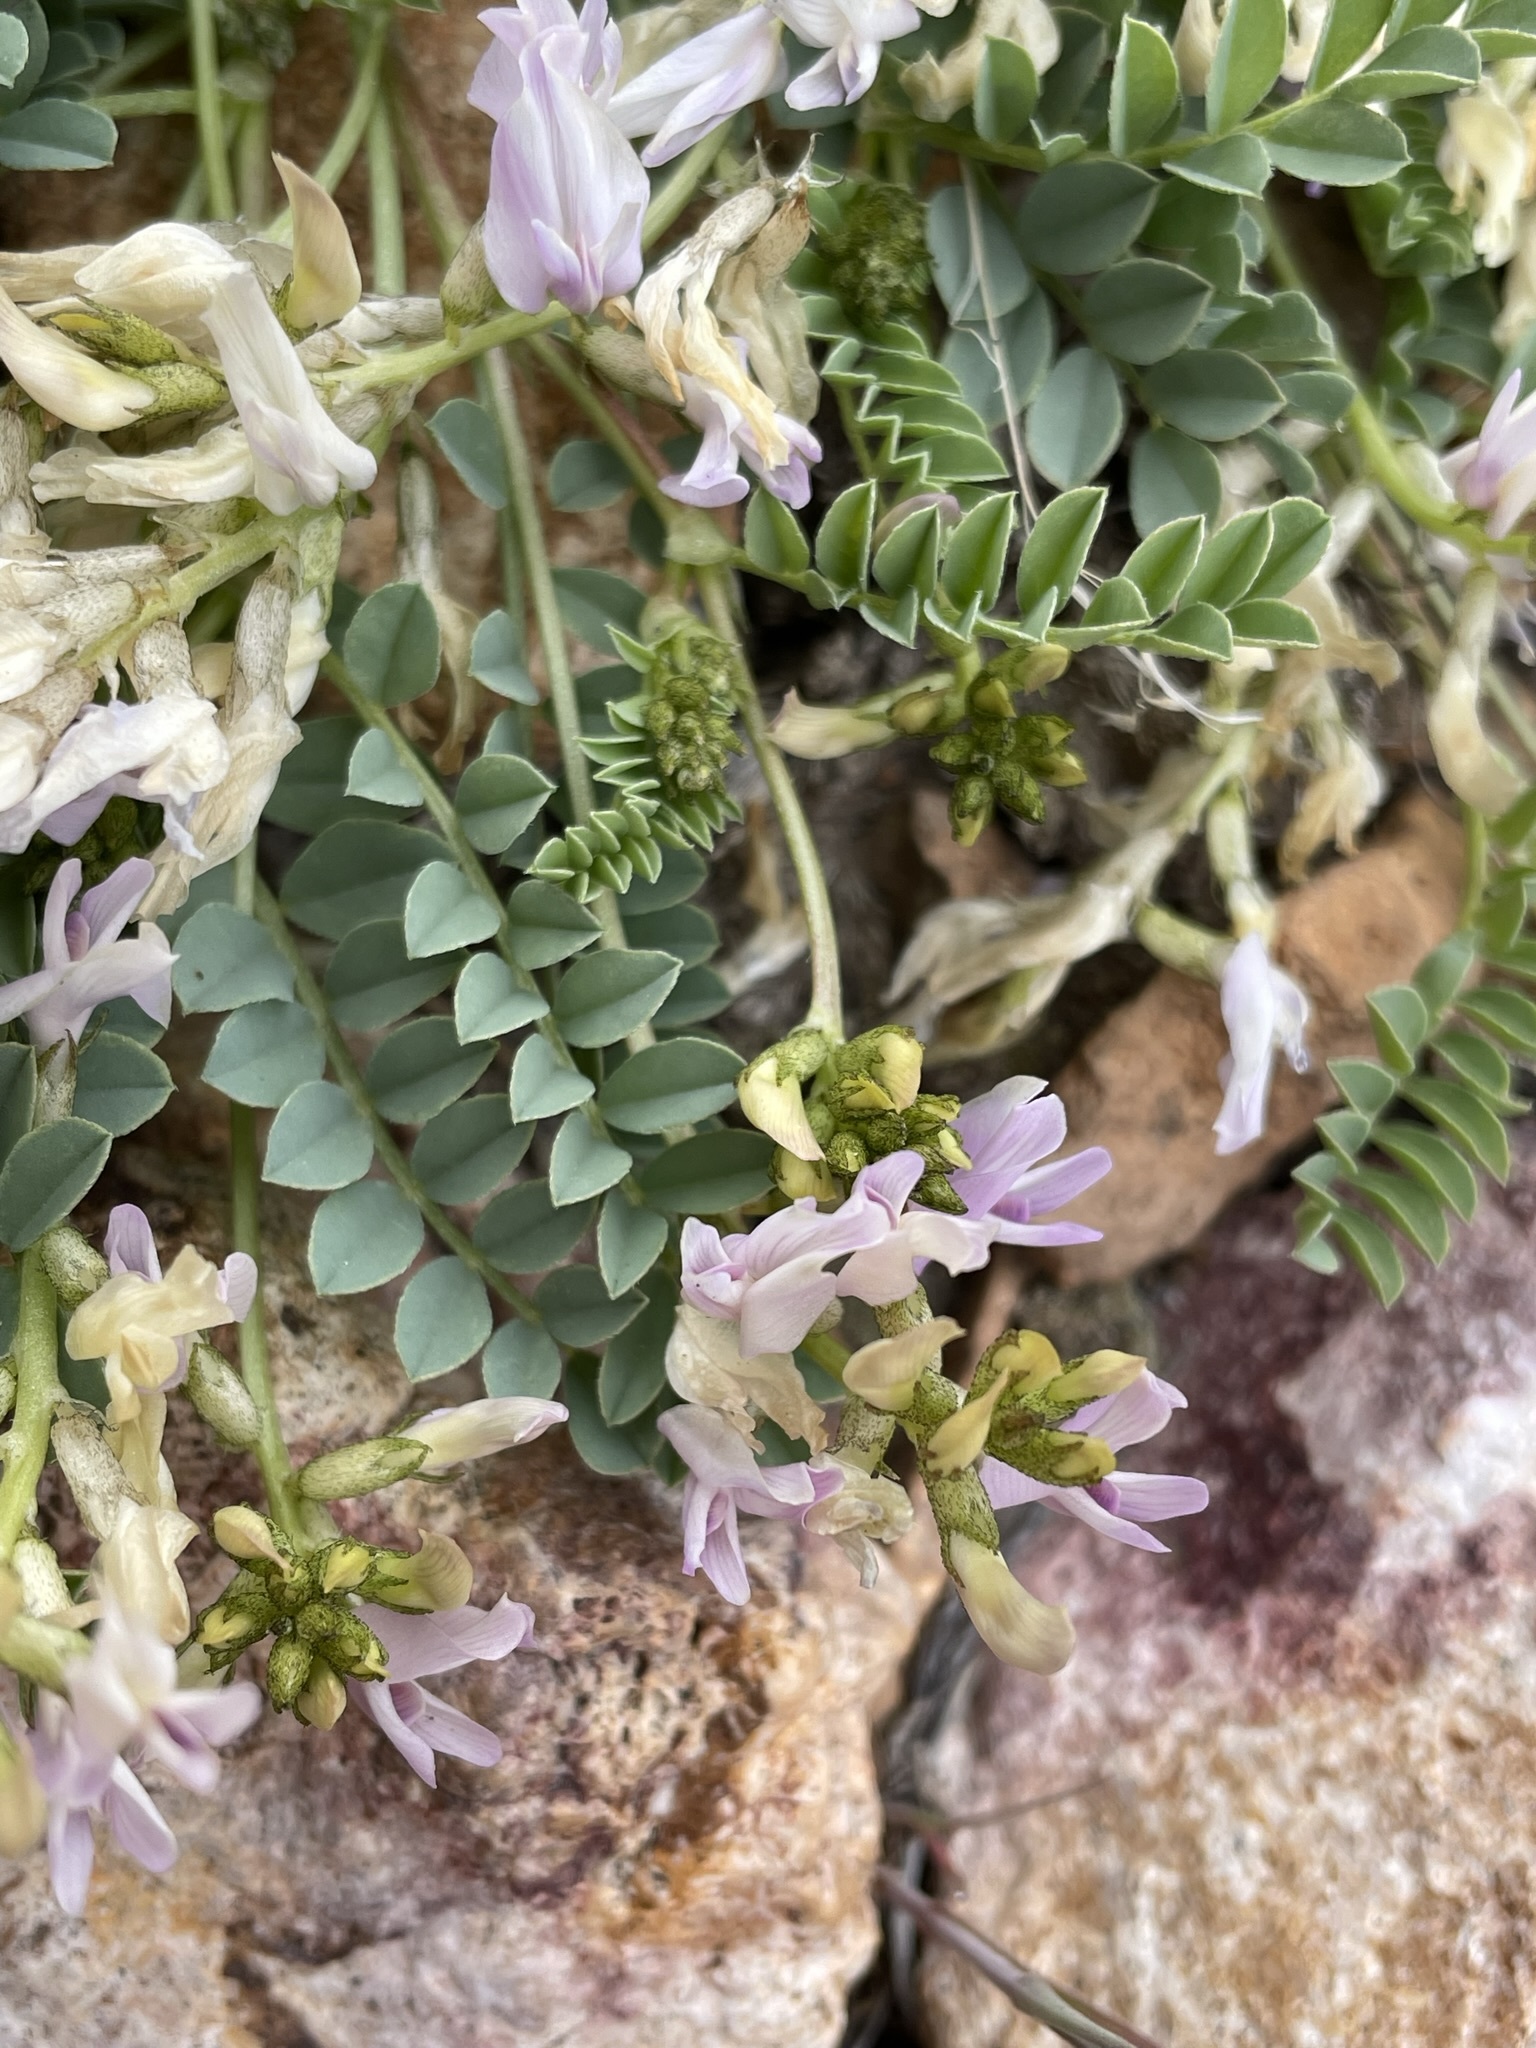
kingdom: Plantae
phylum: Tracheophyta
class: Magnoliopsida
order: Fabales
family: Fabaceae
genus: Astragalus
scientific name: Astragalus lentiginosus
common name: Freckled milkvetch
